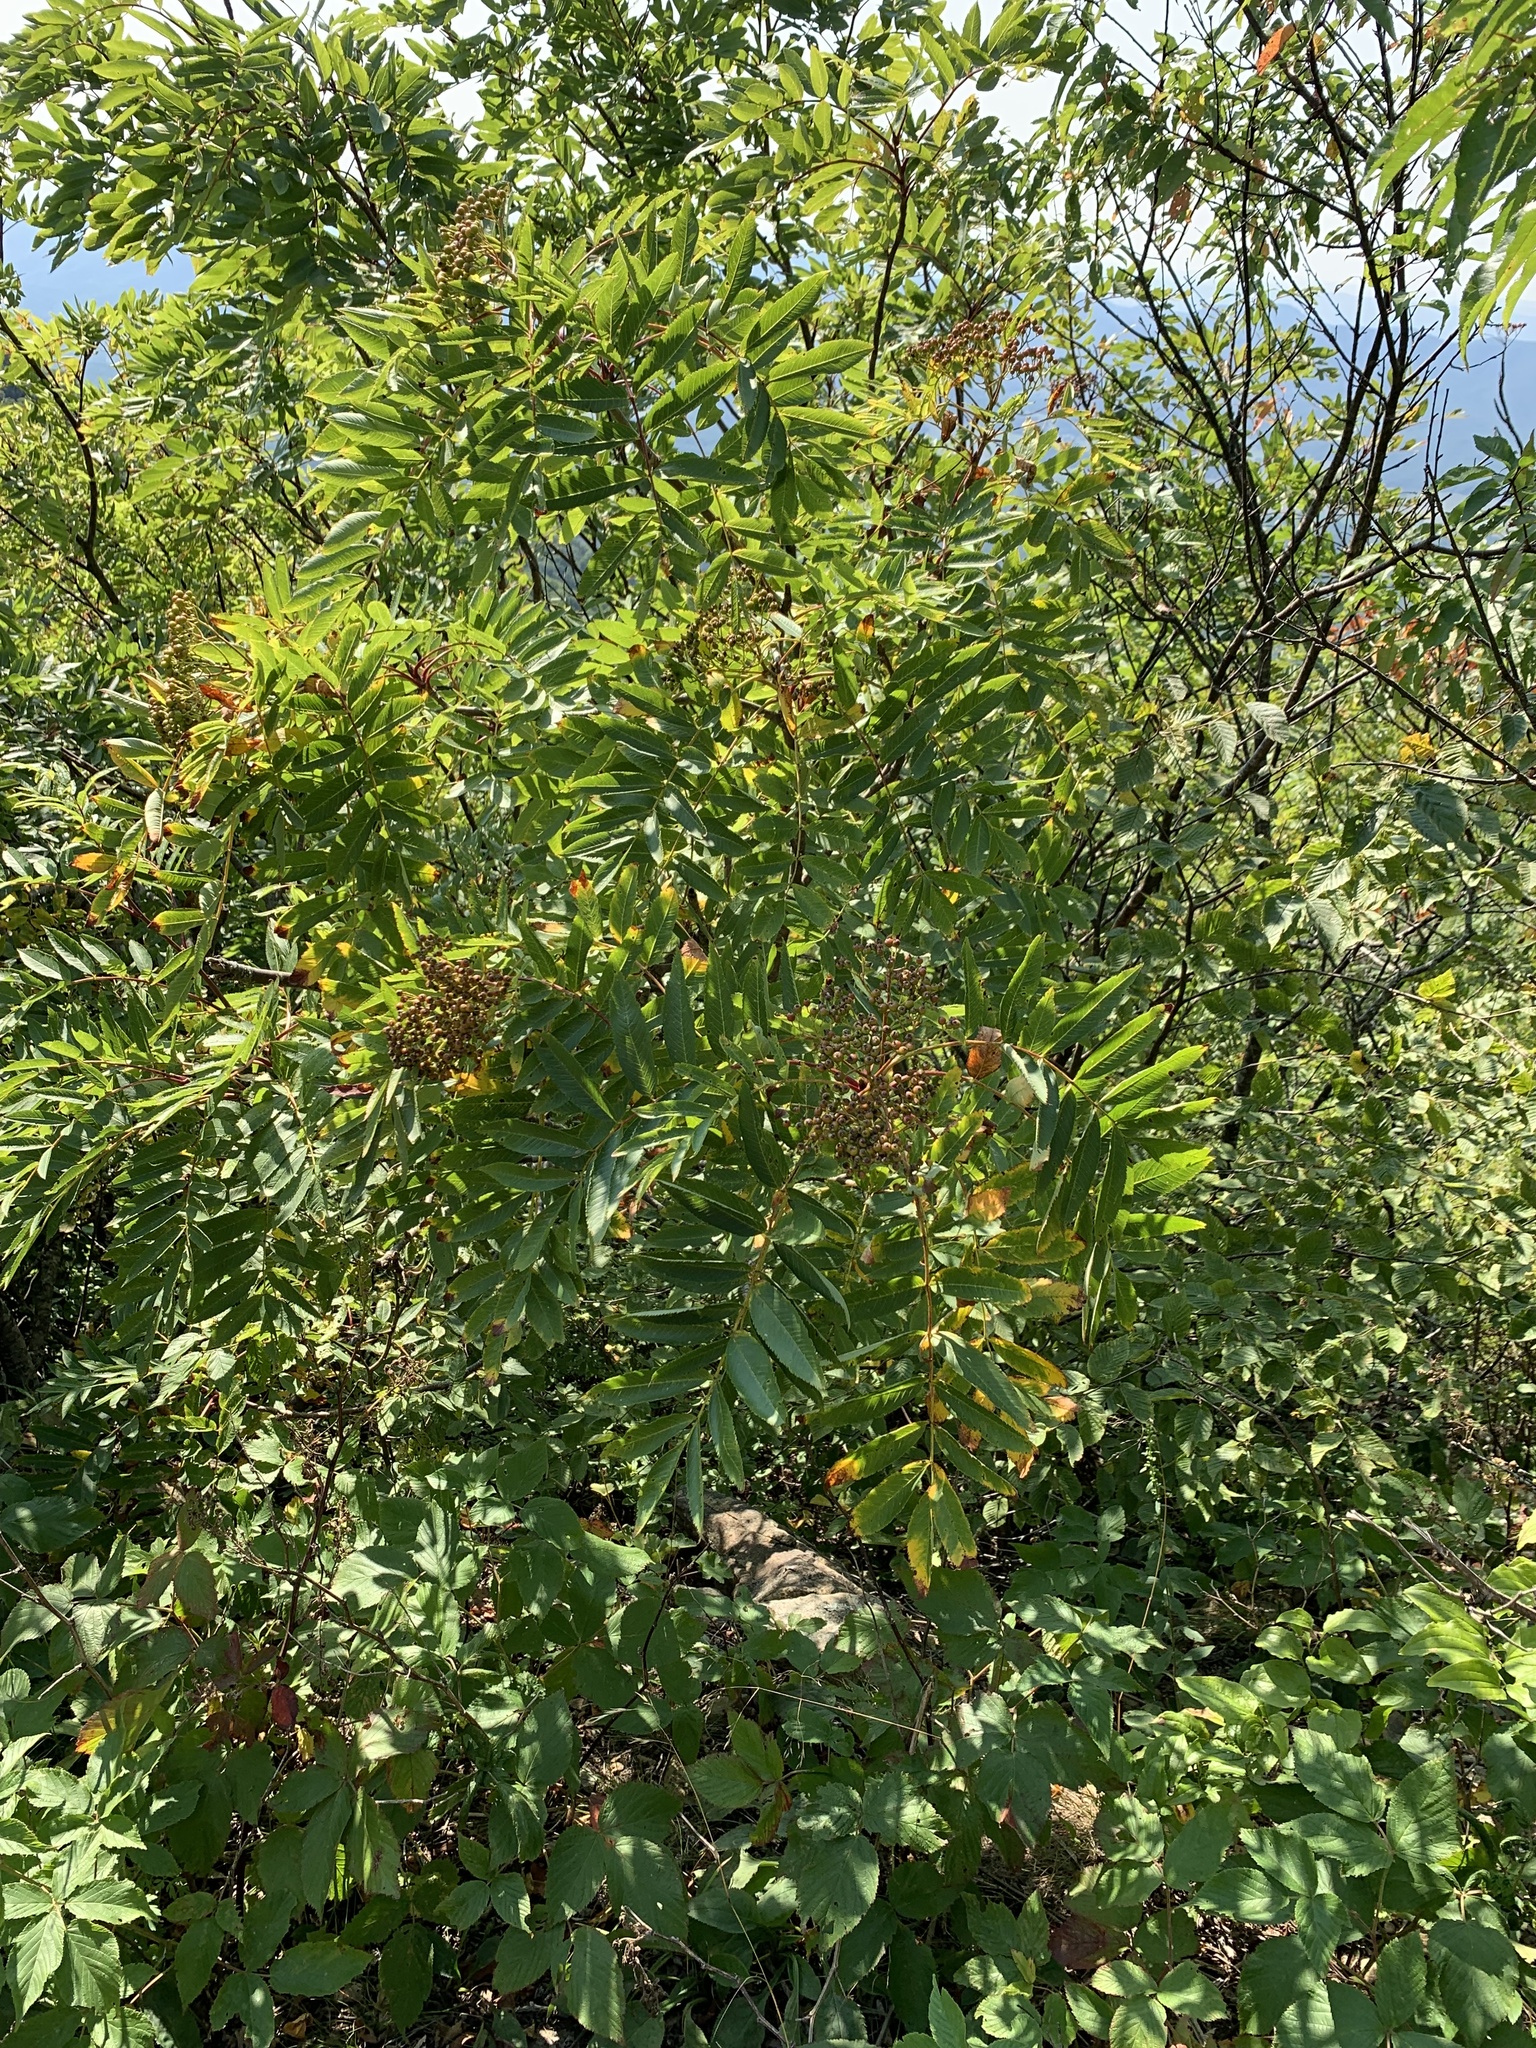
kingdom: Plantae
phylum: Tracheophyta
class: Magnoliopsida
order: Rosales
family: Rosaceae
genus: Sorbus
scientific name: Sorbus americana
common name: American mountain-ash
